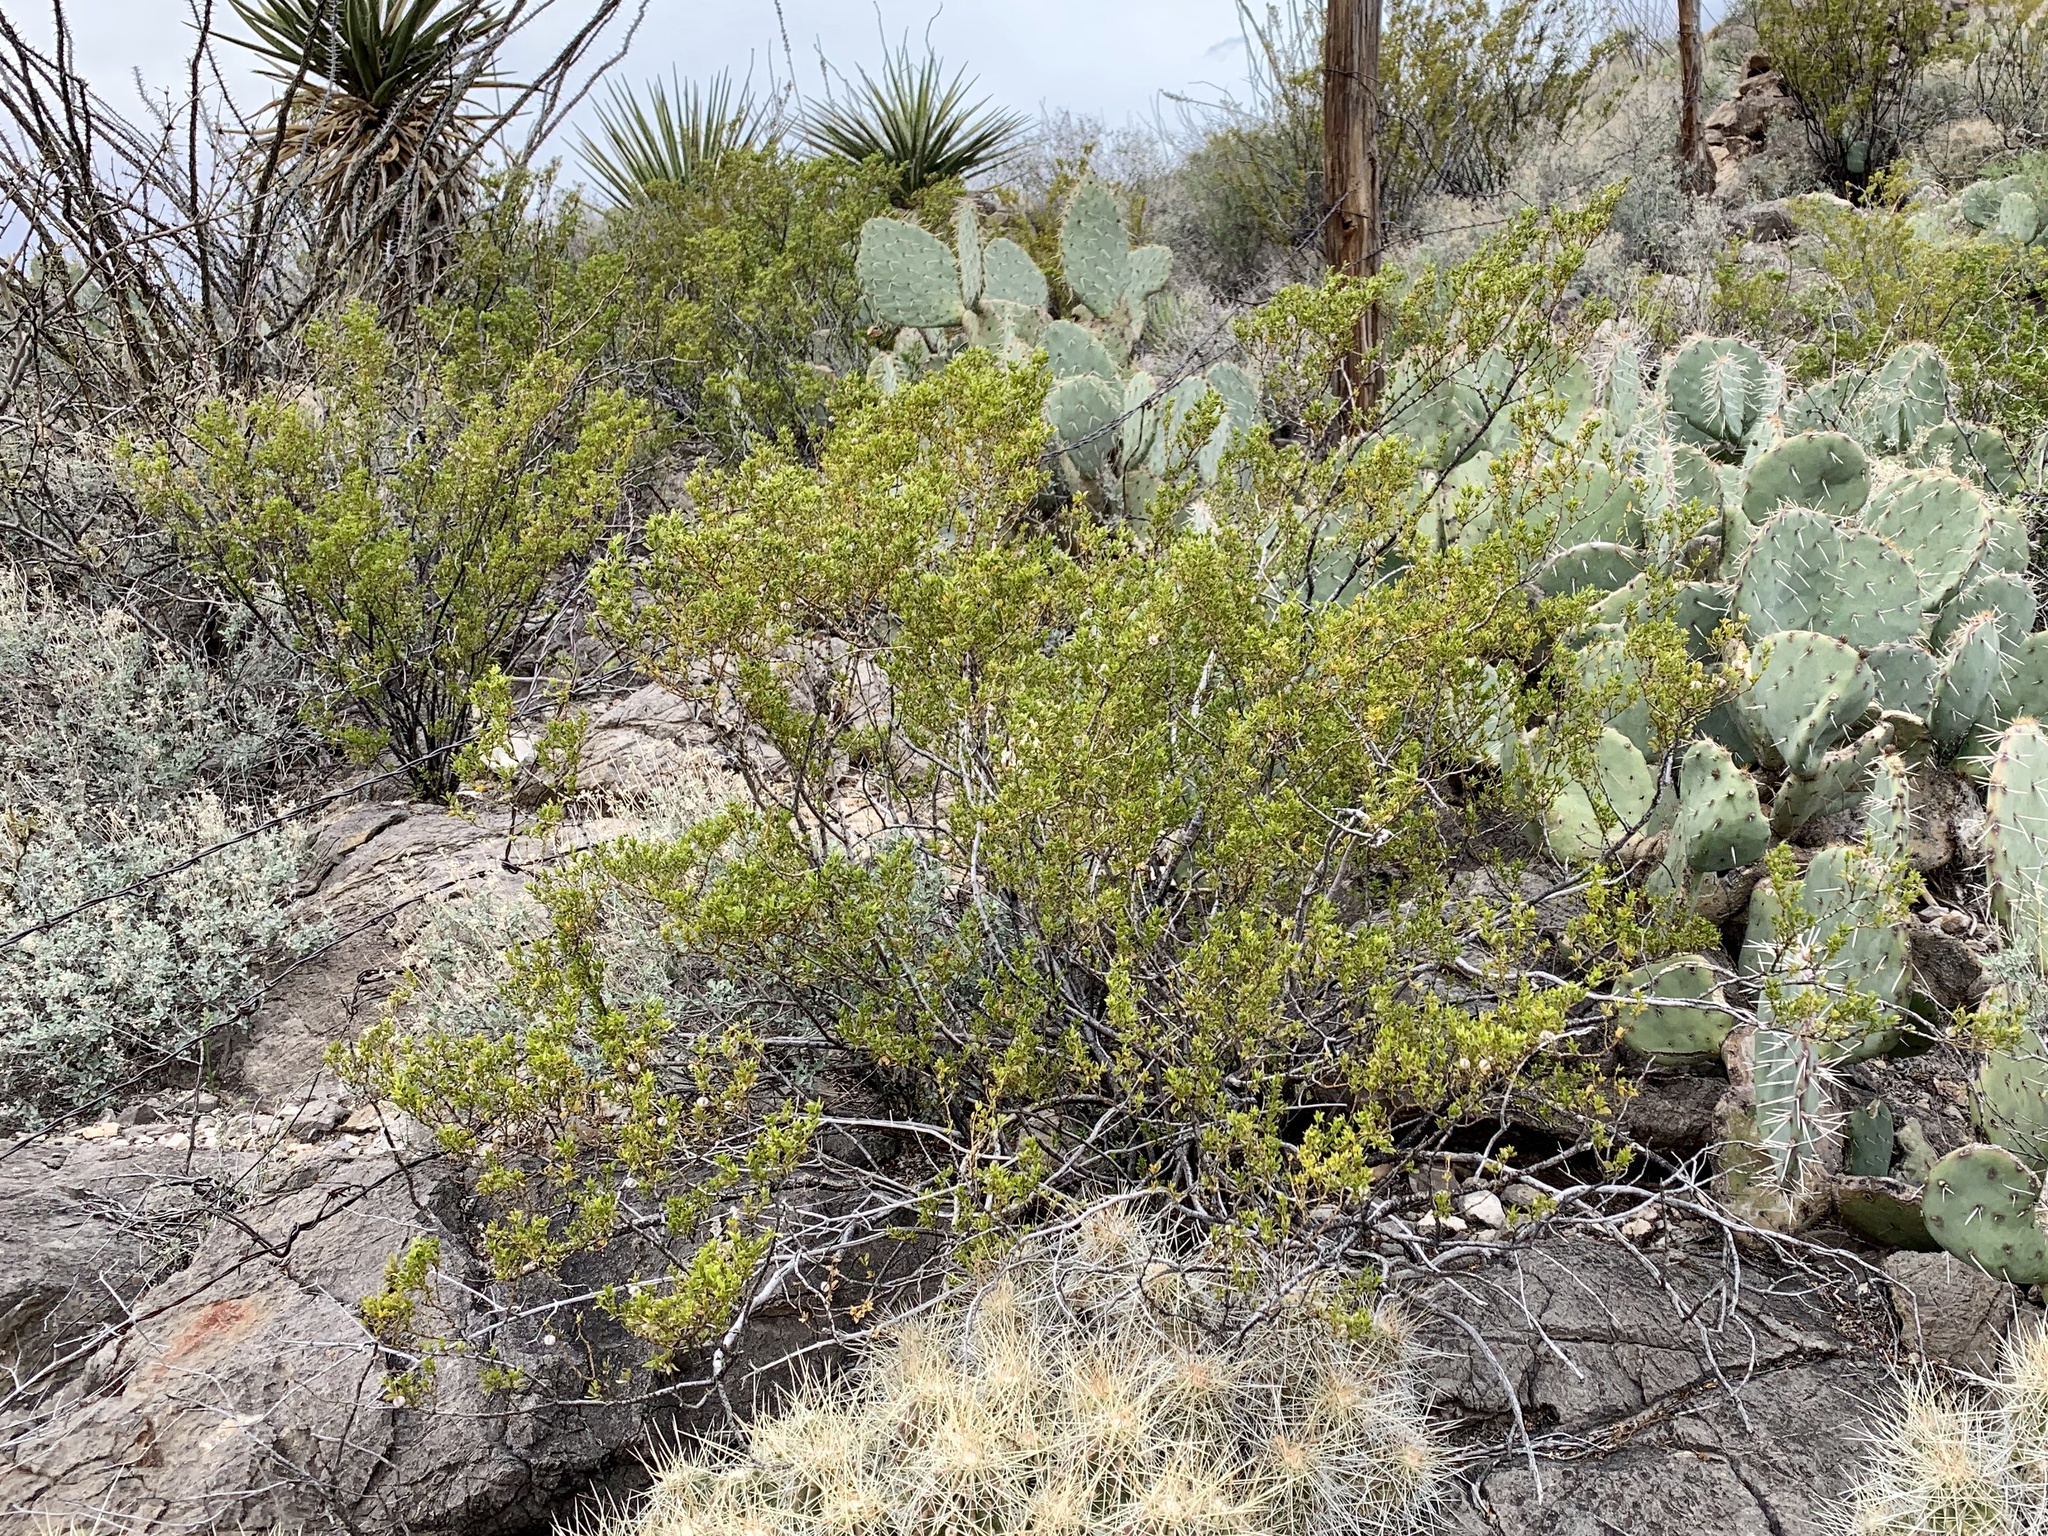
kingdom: Plantae
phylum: Tracheophyta
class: Magnoliopsida
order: Caryophyllales
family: Cactaceae
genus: Echinocereus
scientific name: Echinocereus stramineus
